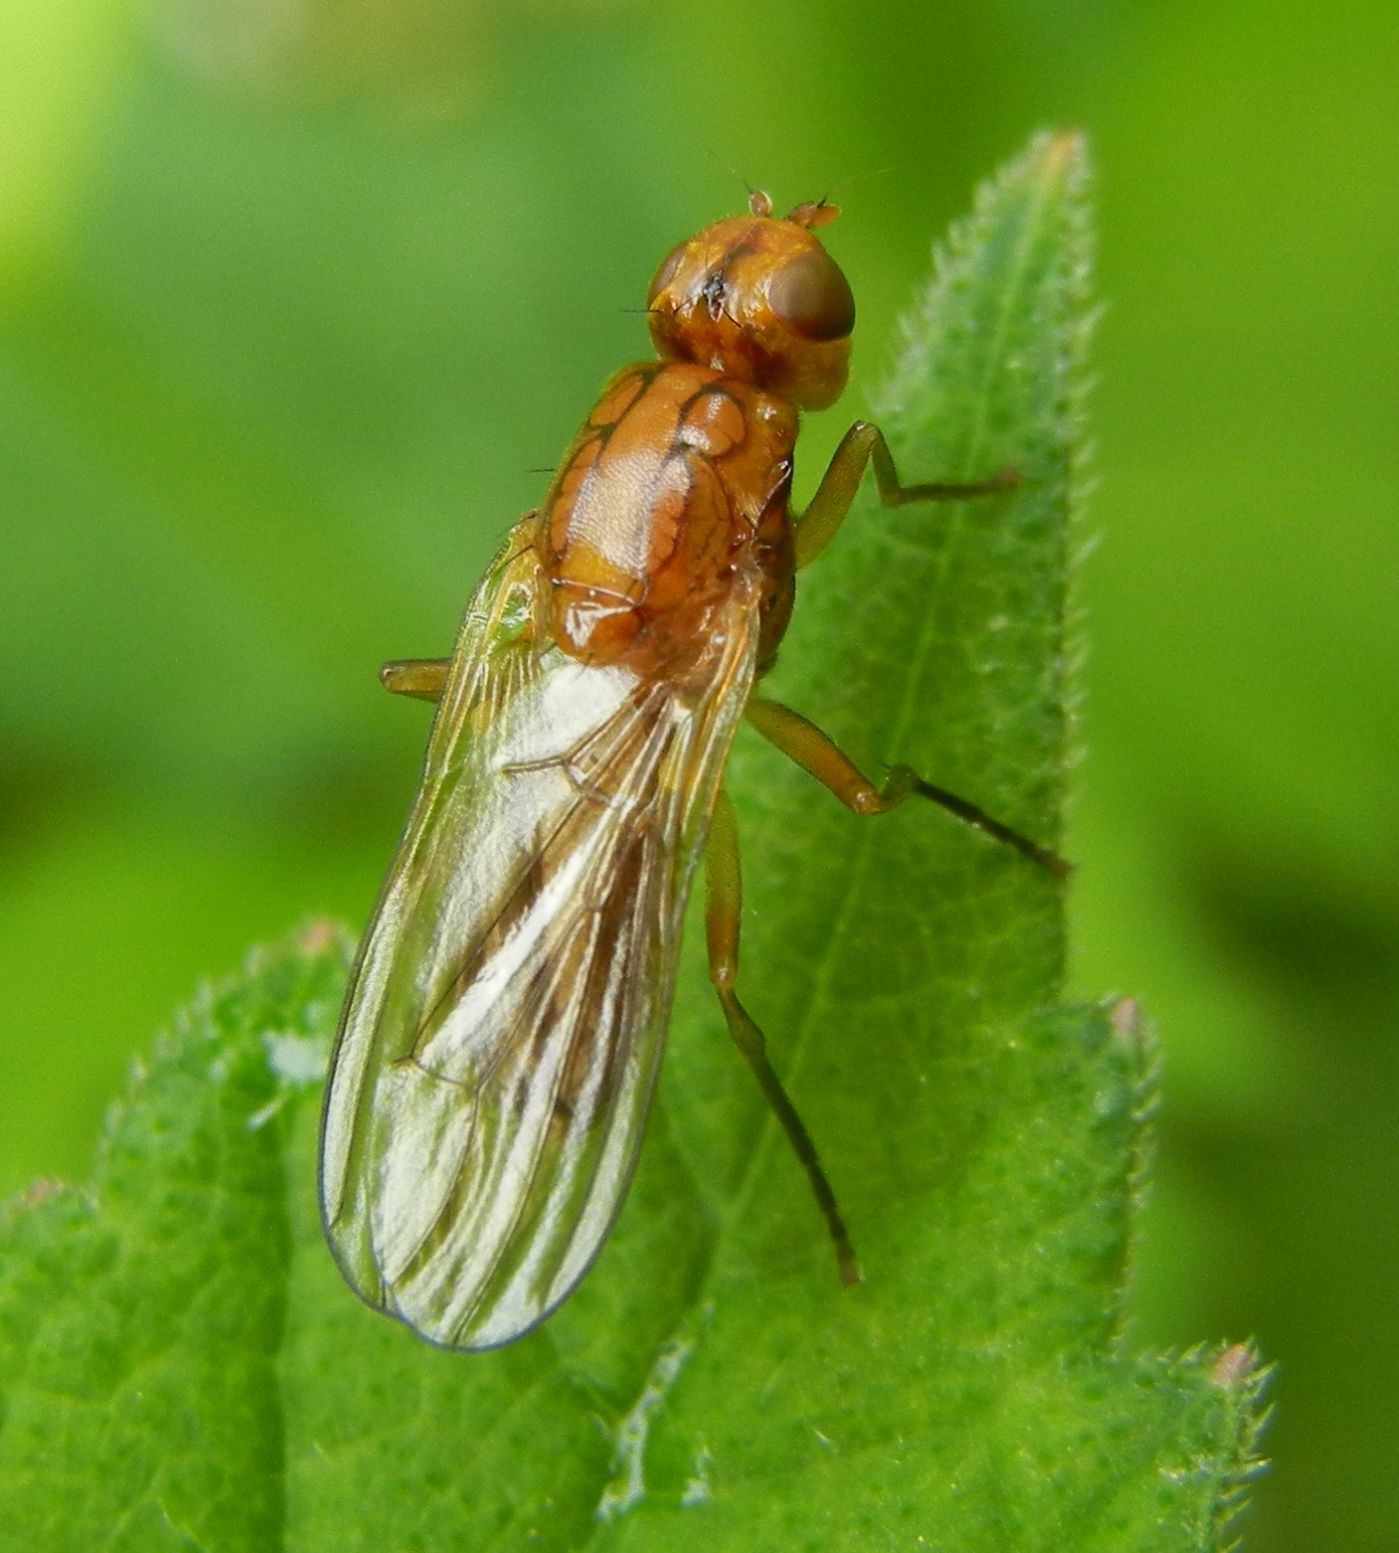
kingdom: Animalia
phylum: Arthropoda
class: Insecta
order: Diptera
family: Psilidae
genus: Psila
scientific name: Psila merdaria
